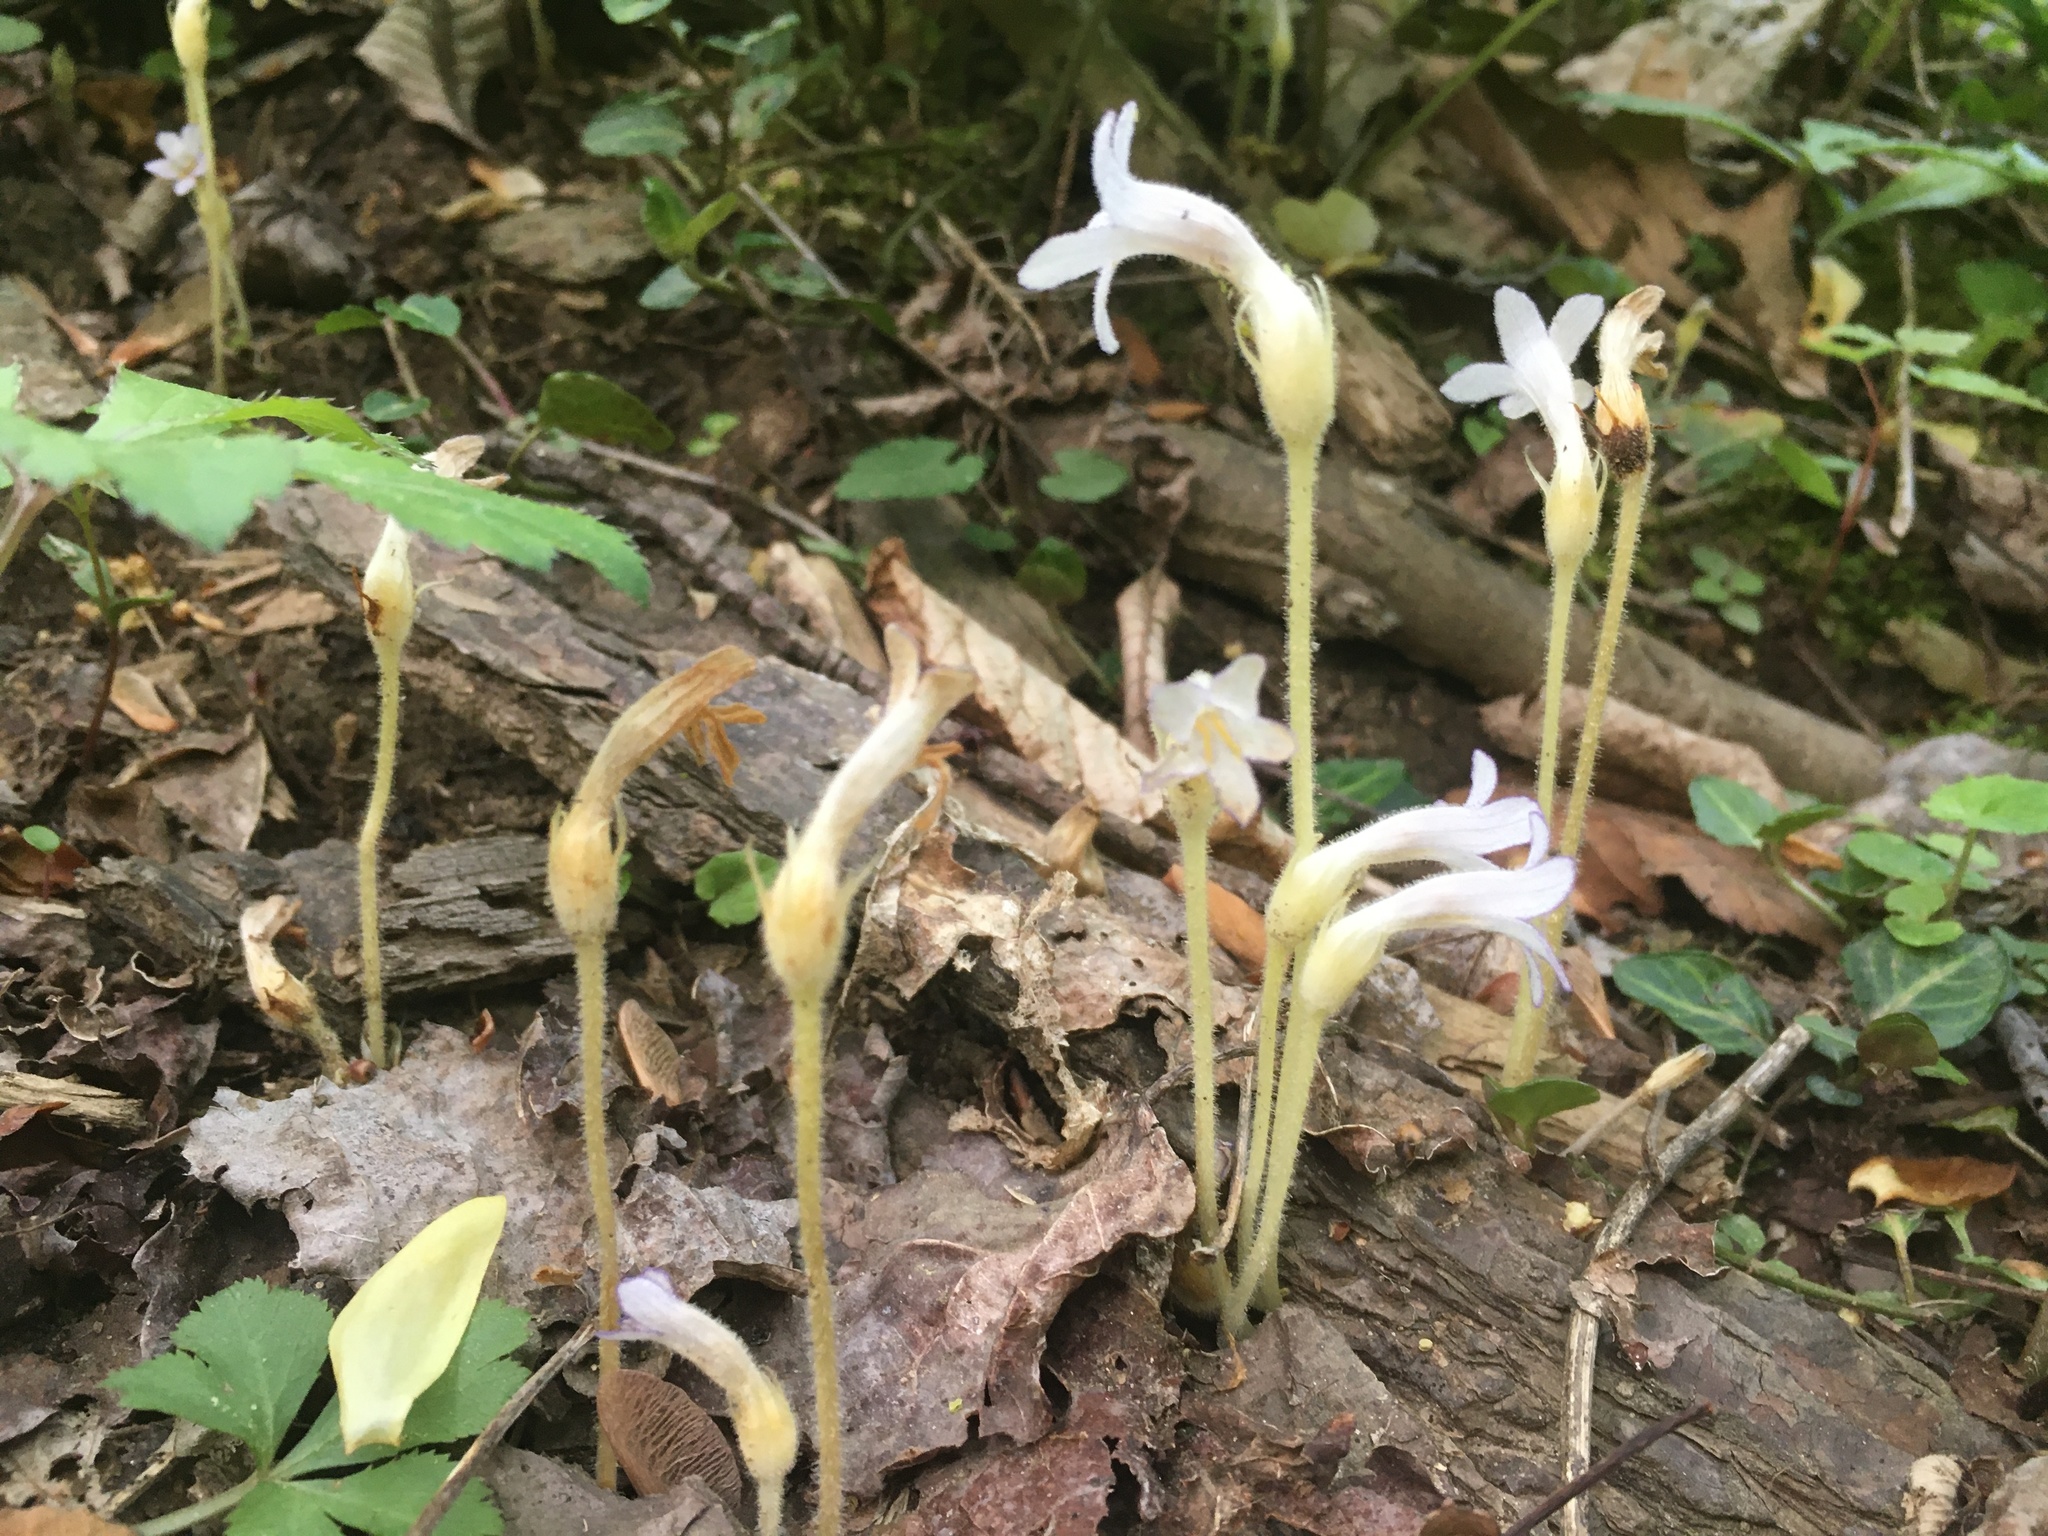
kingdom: Plantae
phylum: Tracheophyta
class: Magnoliopsida
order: Lamiales
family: Orobanchaceae
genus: Aphyllon
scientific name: Aphyllon uniflorum
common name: One-flowered broomrape
